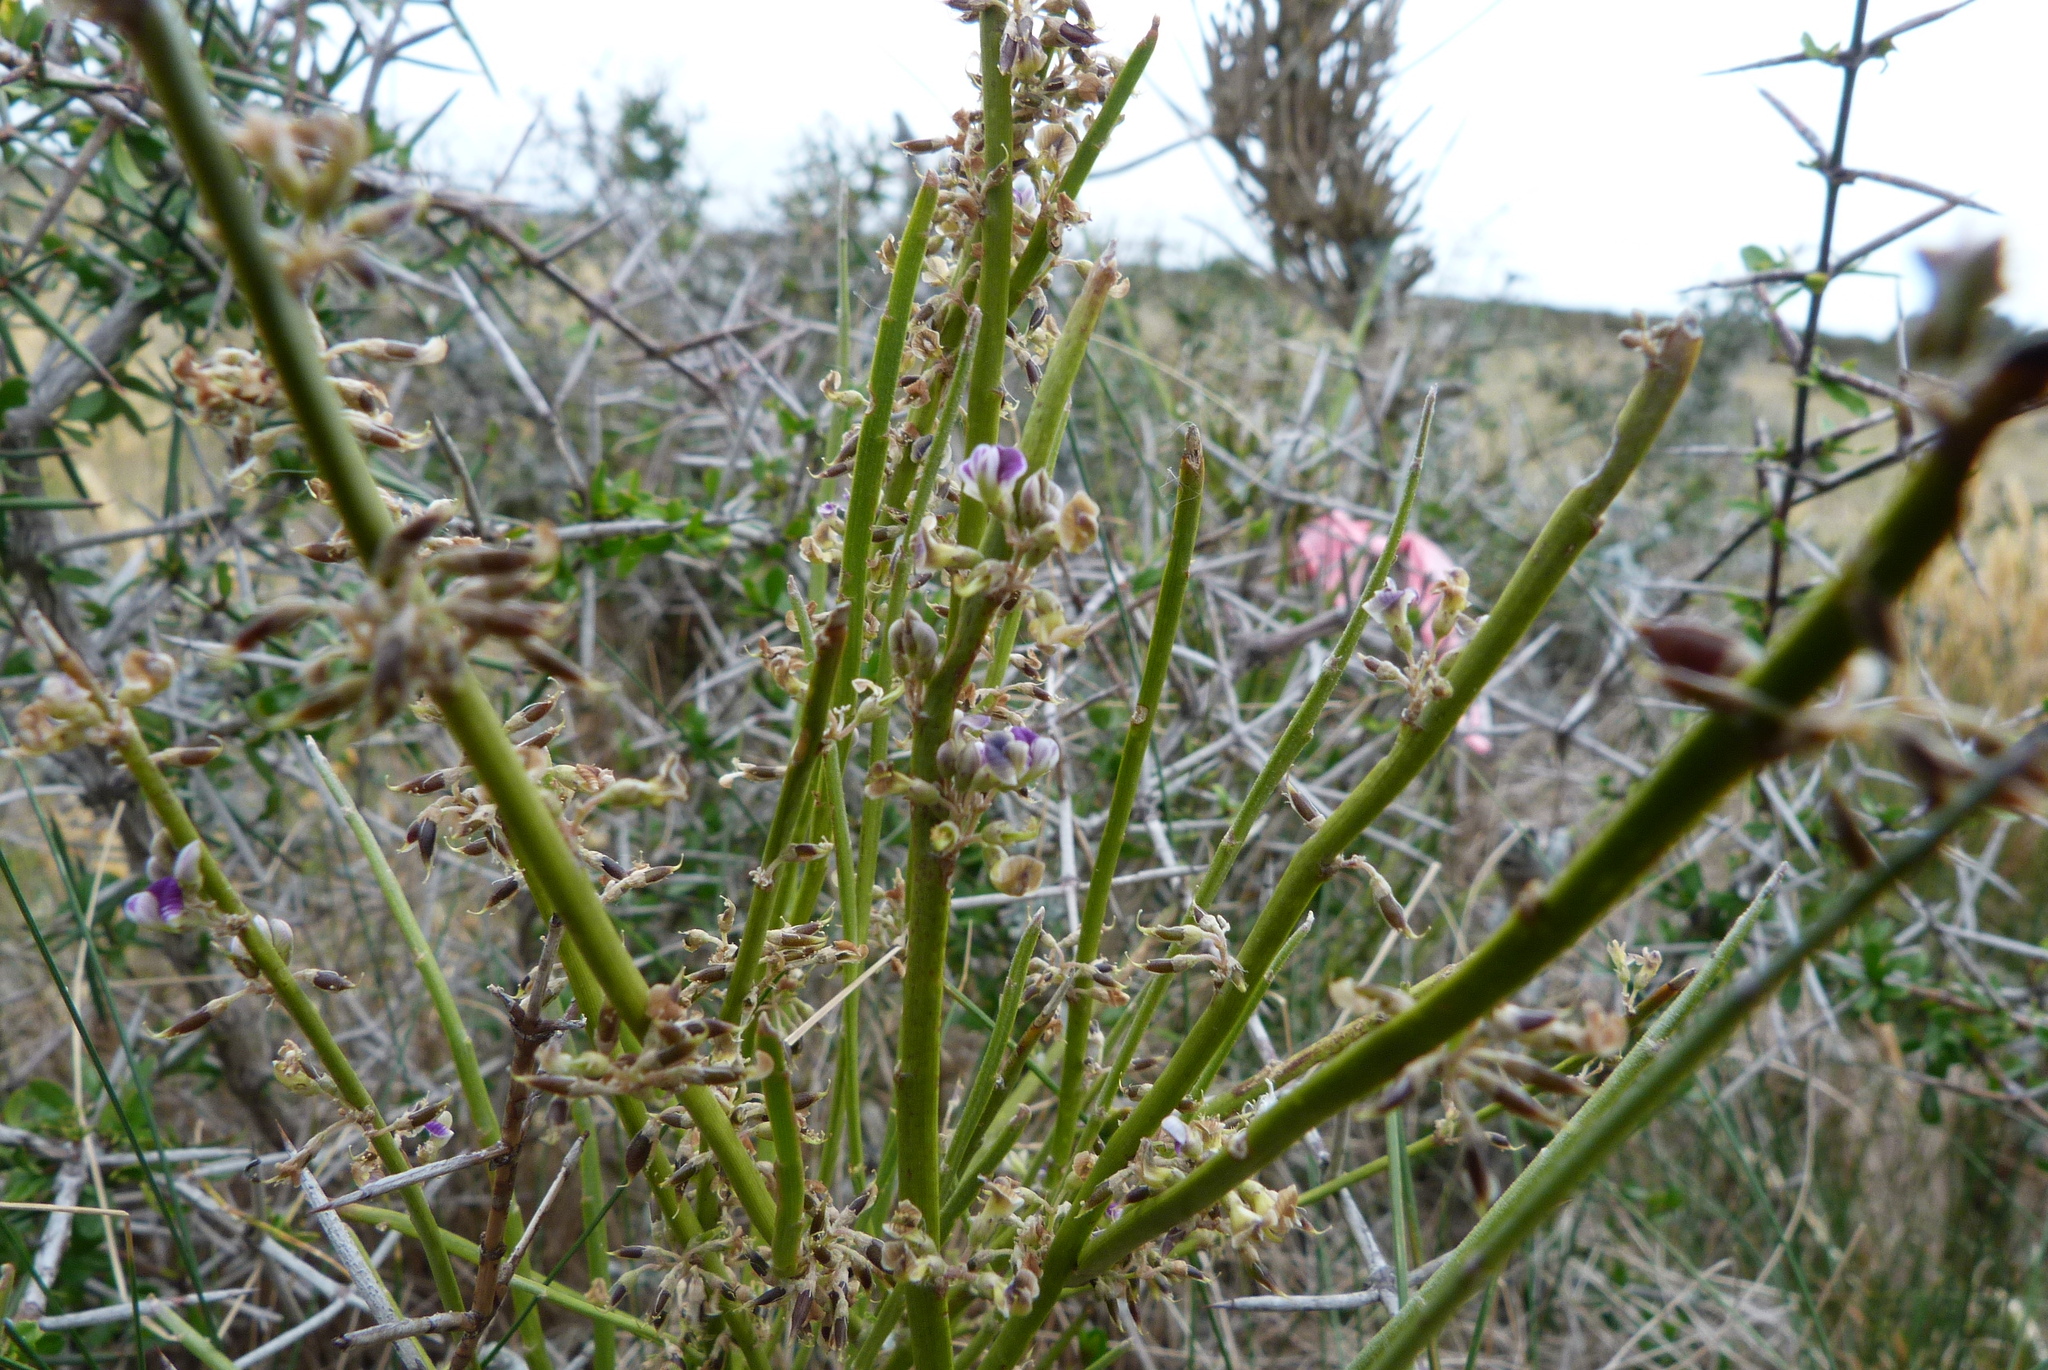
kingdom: Plantae
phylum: Tracheophyta
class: Magnoliopsida
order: Fabales
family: Fabaceae
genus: Carmichaelia
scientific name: Carmichaelia australis
